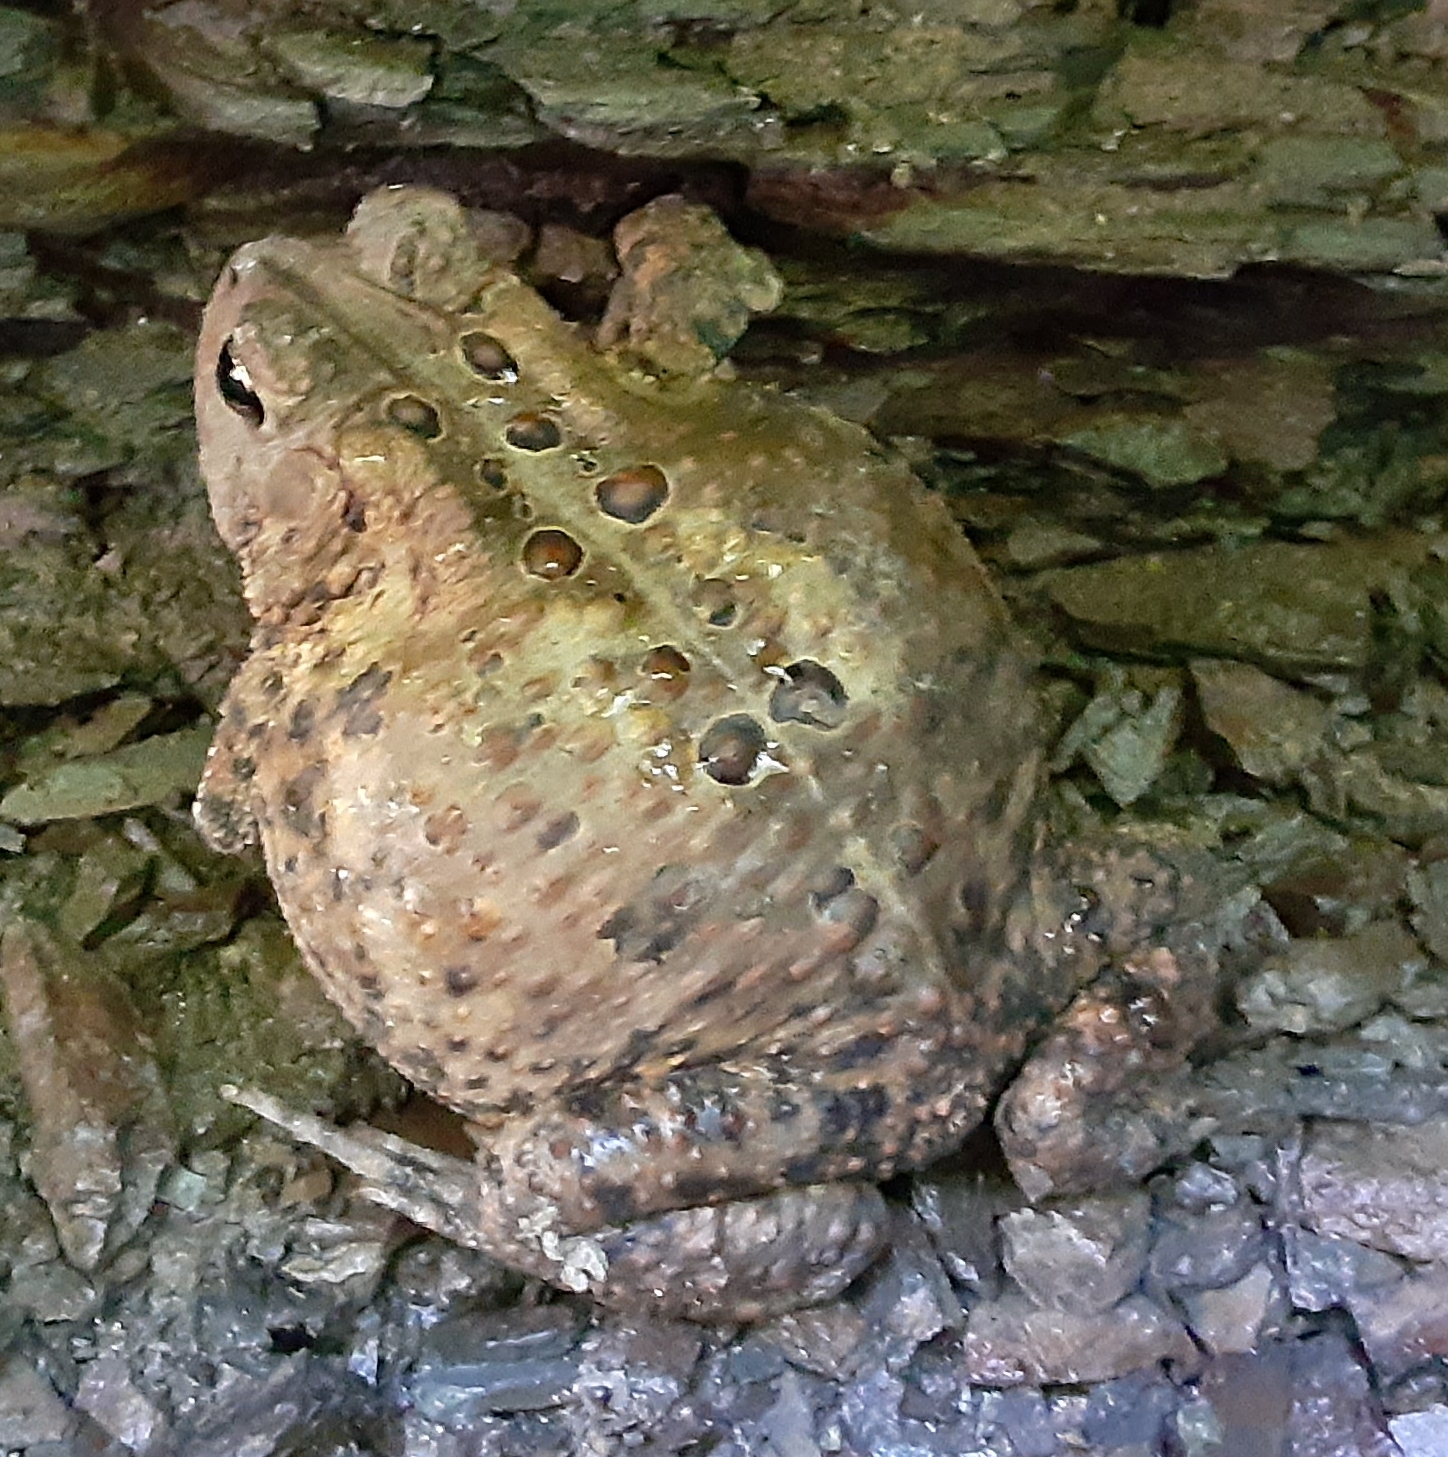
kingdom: Animalia
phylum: Chordata
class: Amphibia
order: Anura
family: Bufonidae
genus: Anaxyrus
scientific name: Anaxyrus americanus
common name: American toad
